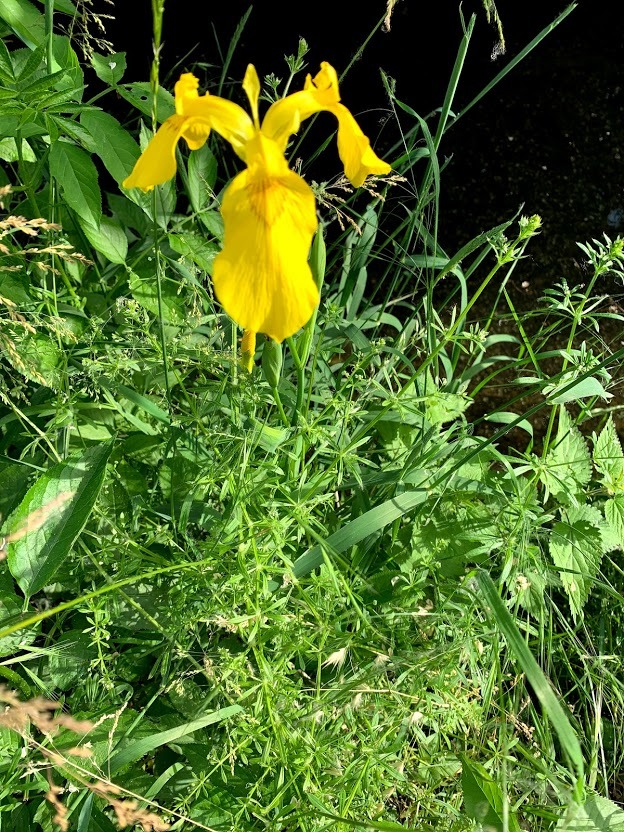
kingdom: Plantae
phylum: Tracheophyta
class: Liliopsida
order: Asparagales
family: Iridaceae
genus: Iris
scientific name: Iris pseudacorus
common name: Yellow flag
